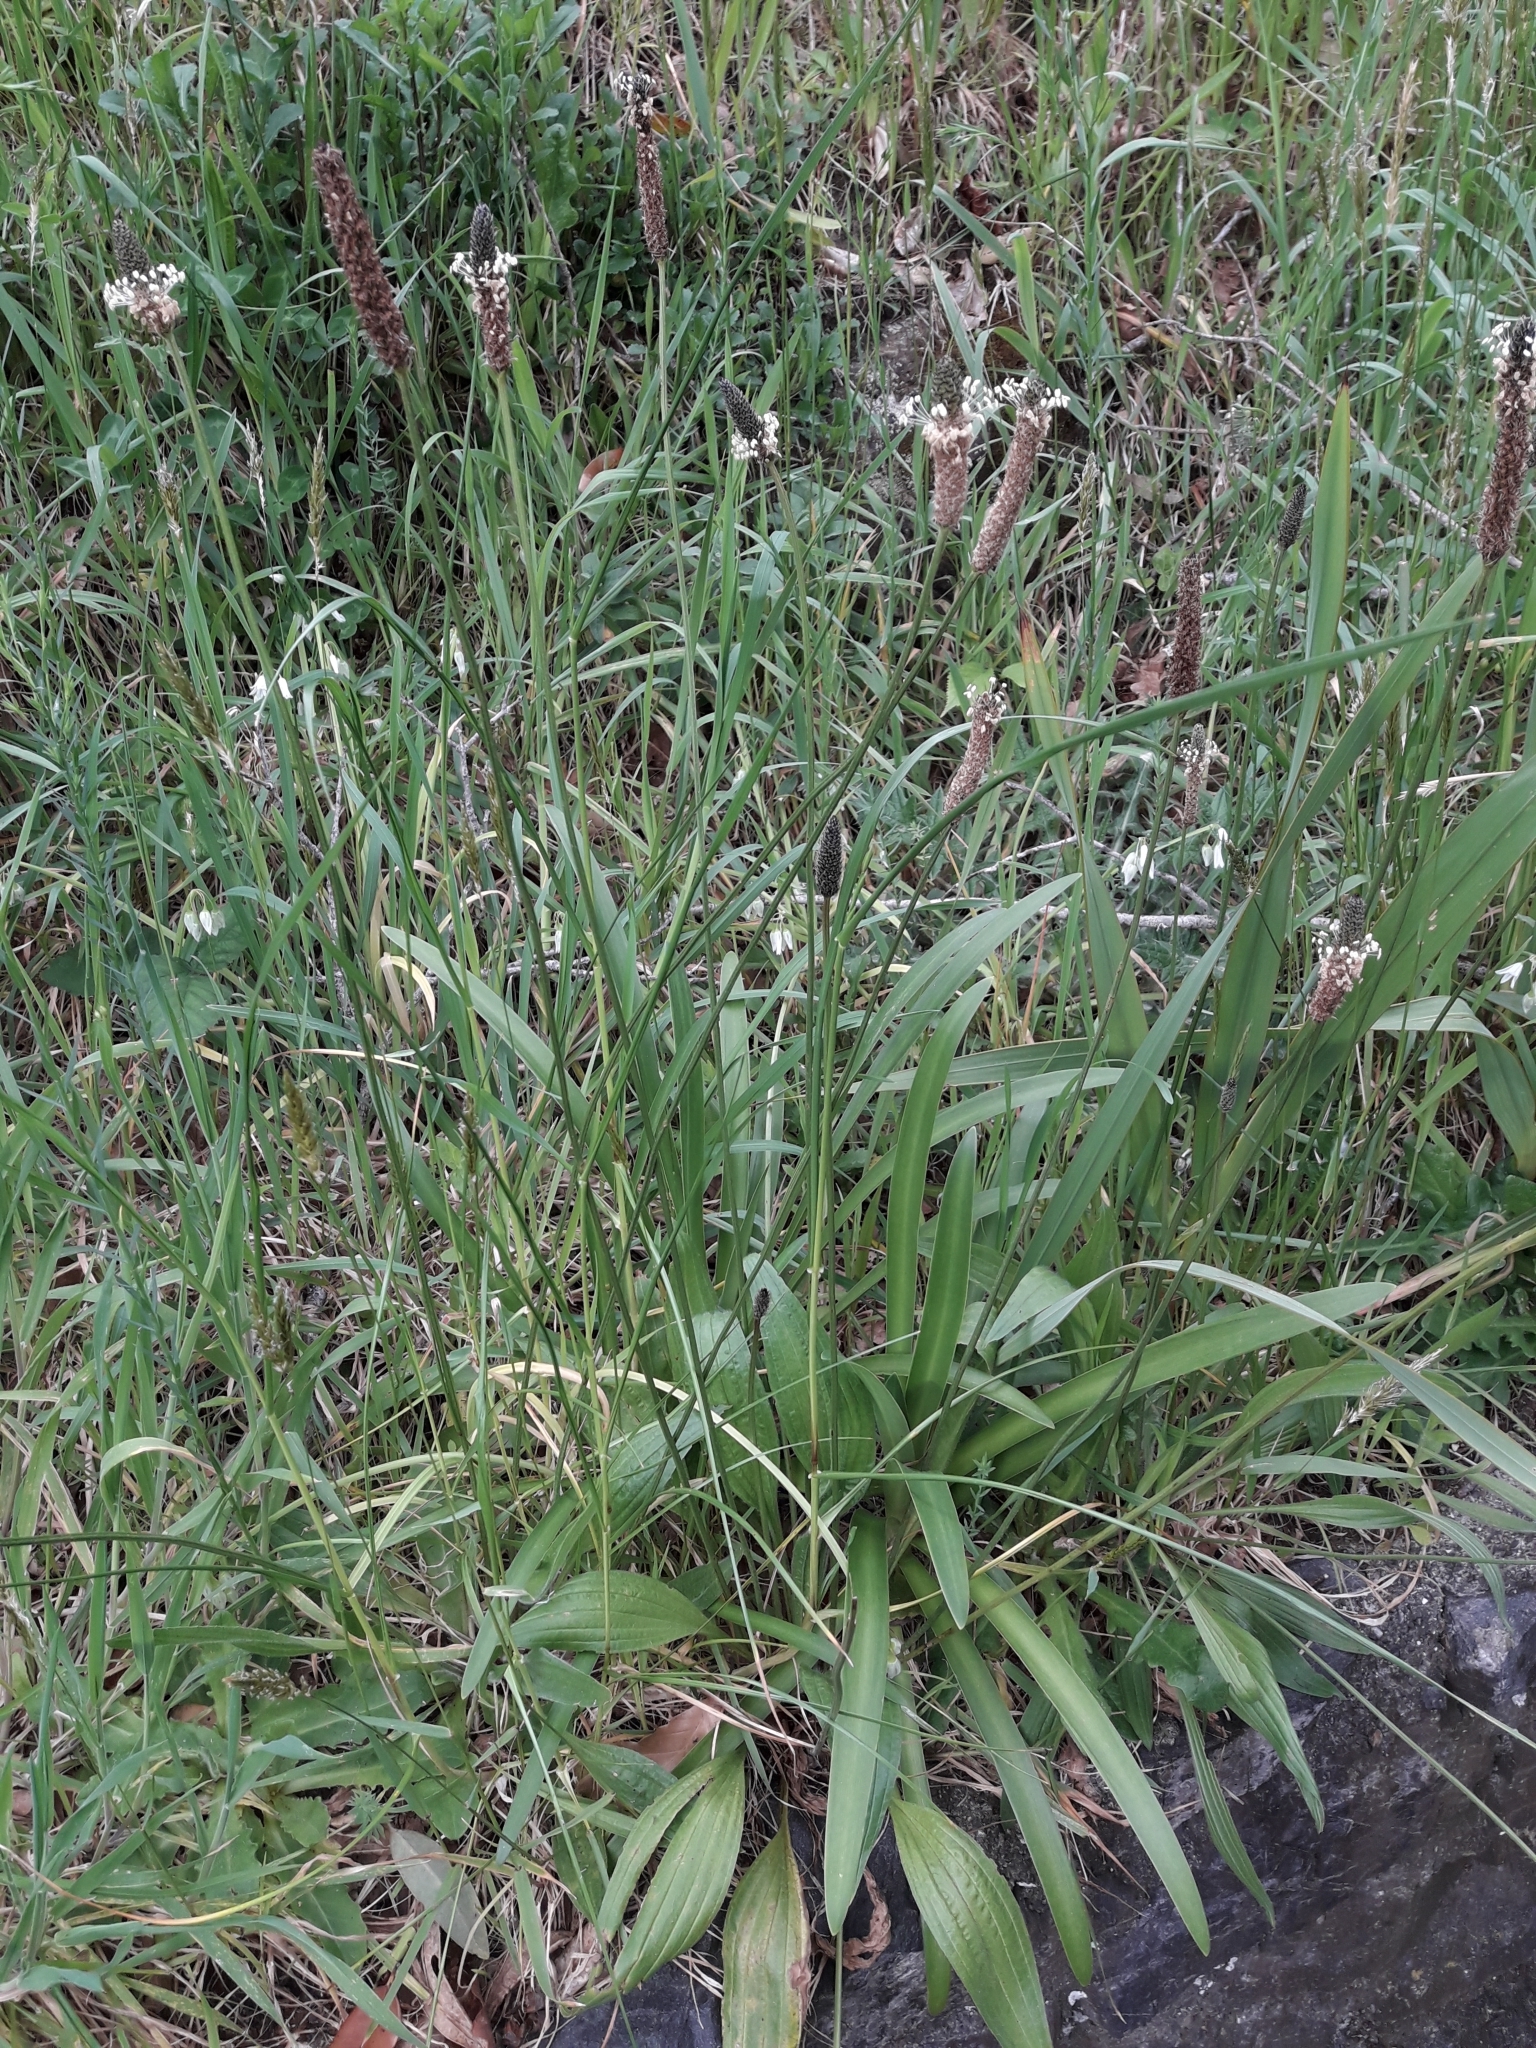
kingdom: Plantae
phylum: Tracheophyta
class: Magnoliopsida
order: Lamiales
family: Plantaginaceae
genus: Plantago
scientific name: Plantago lanceolata
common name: Ribwort plantain
